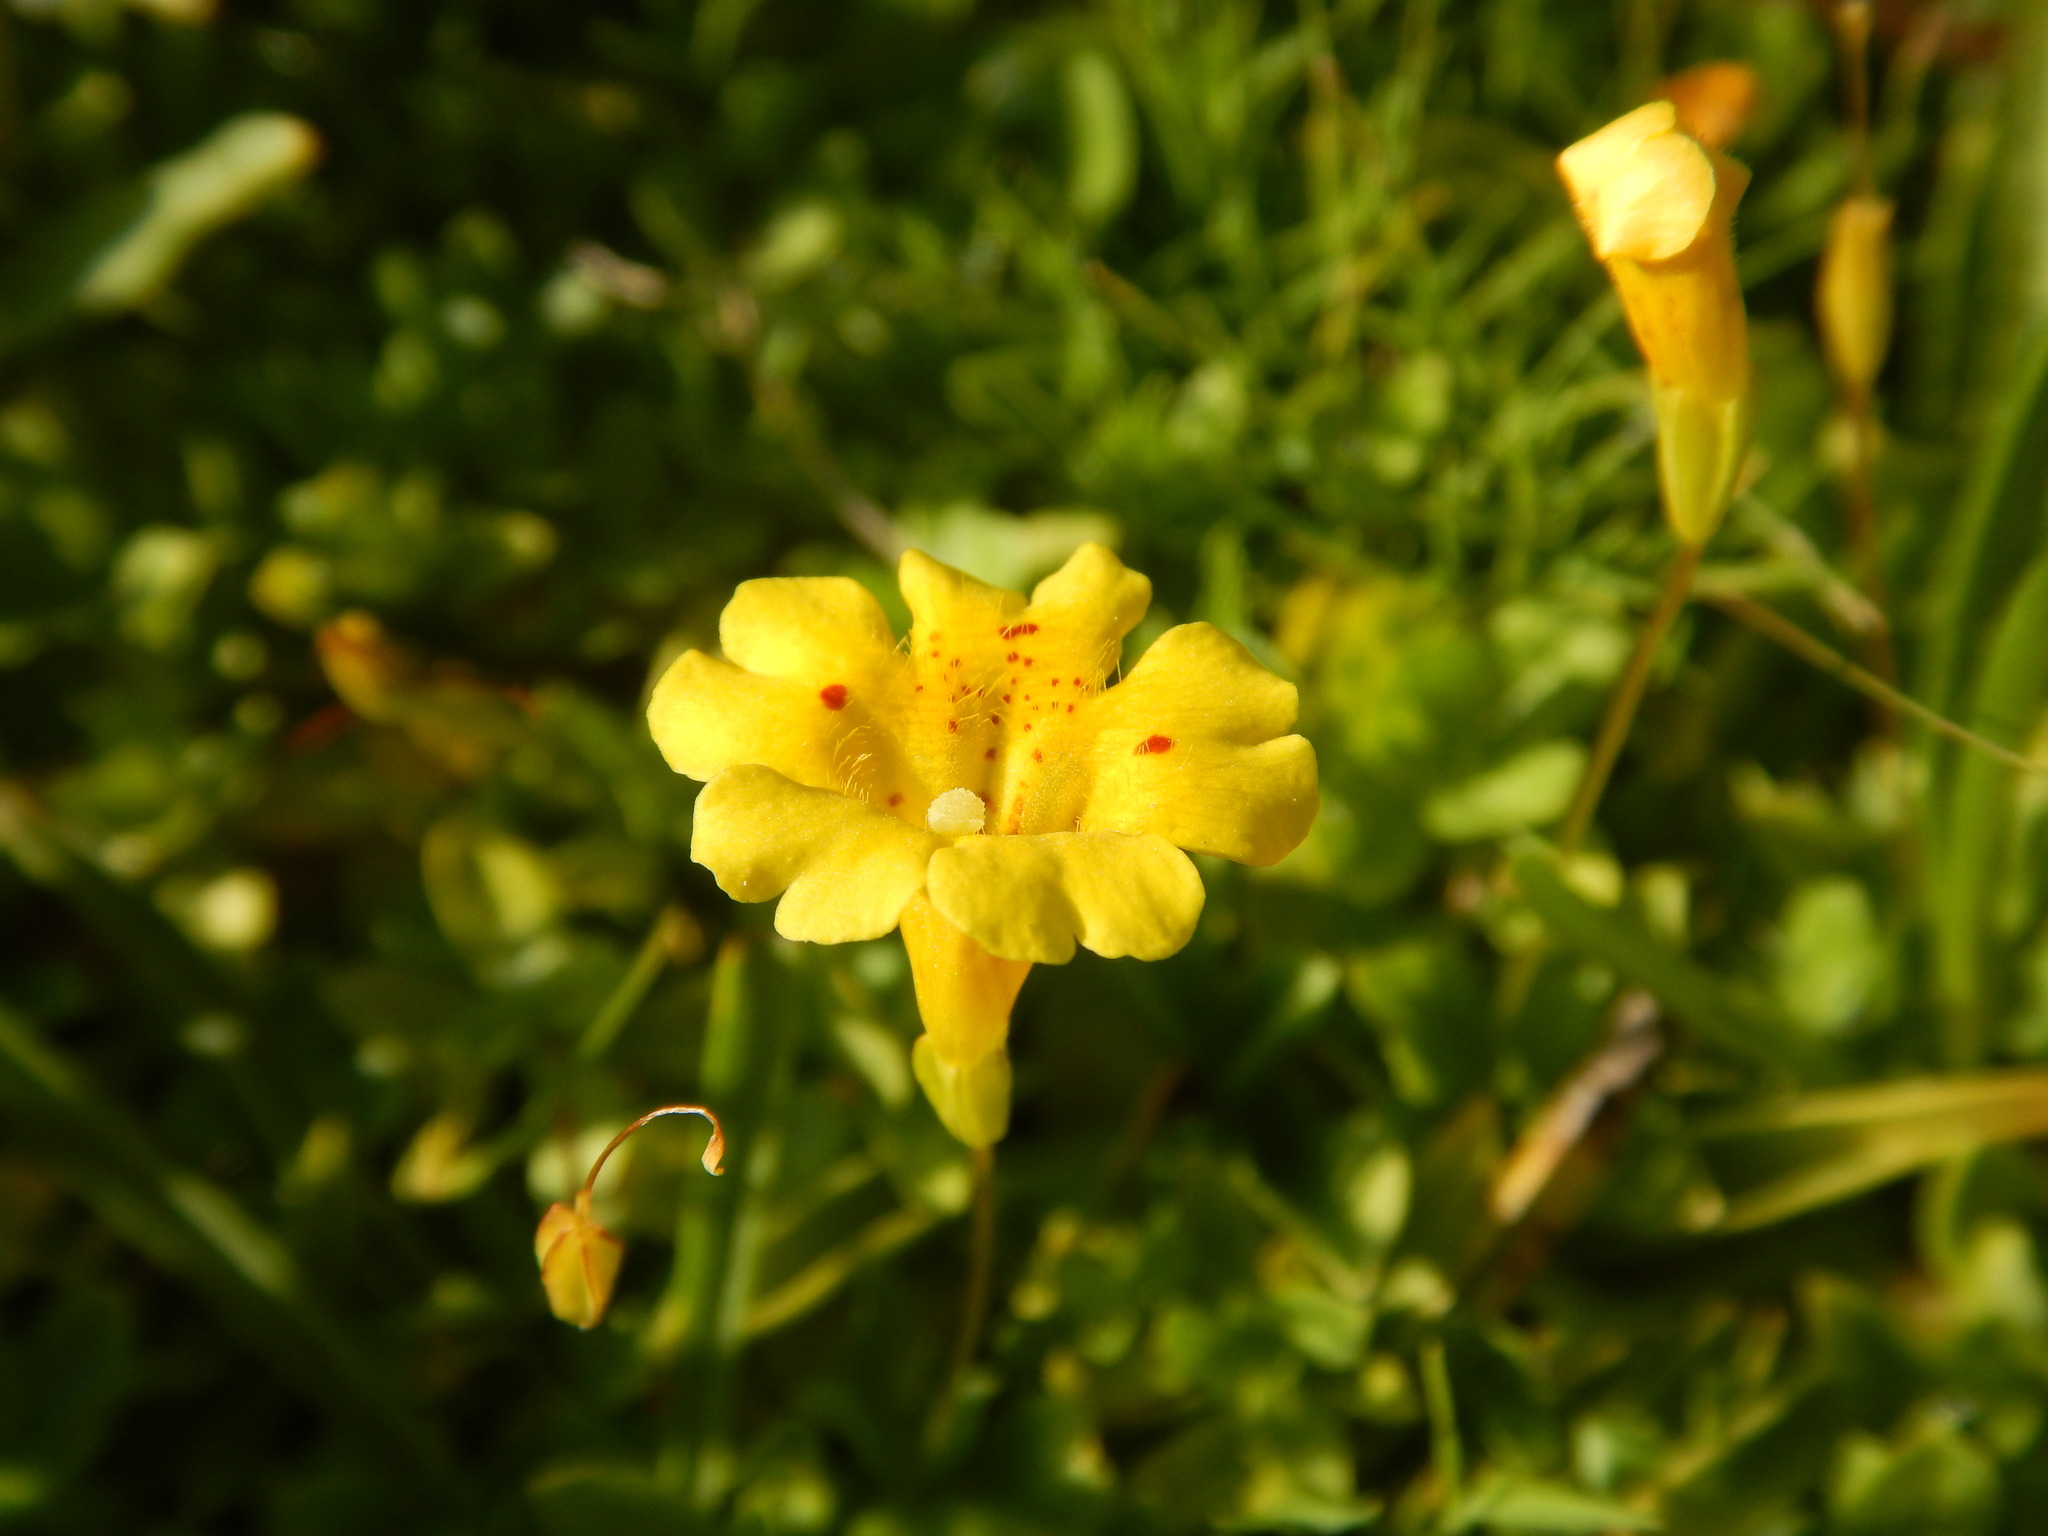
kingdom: Plantae
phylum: Tracheophyta
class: Magnoliopsida
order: Lamiales
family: Phrymaceae
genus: Erythranthe
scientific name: Erythranthe primuloides
